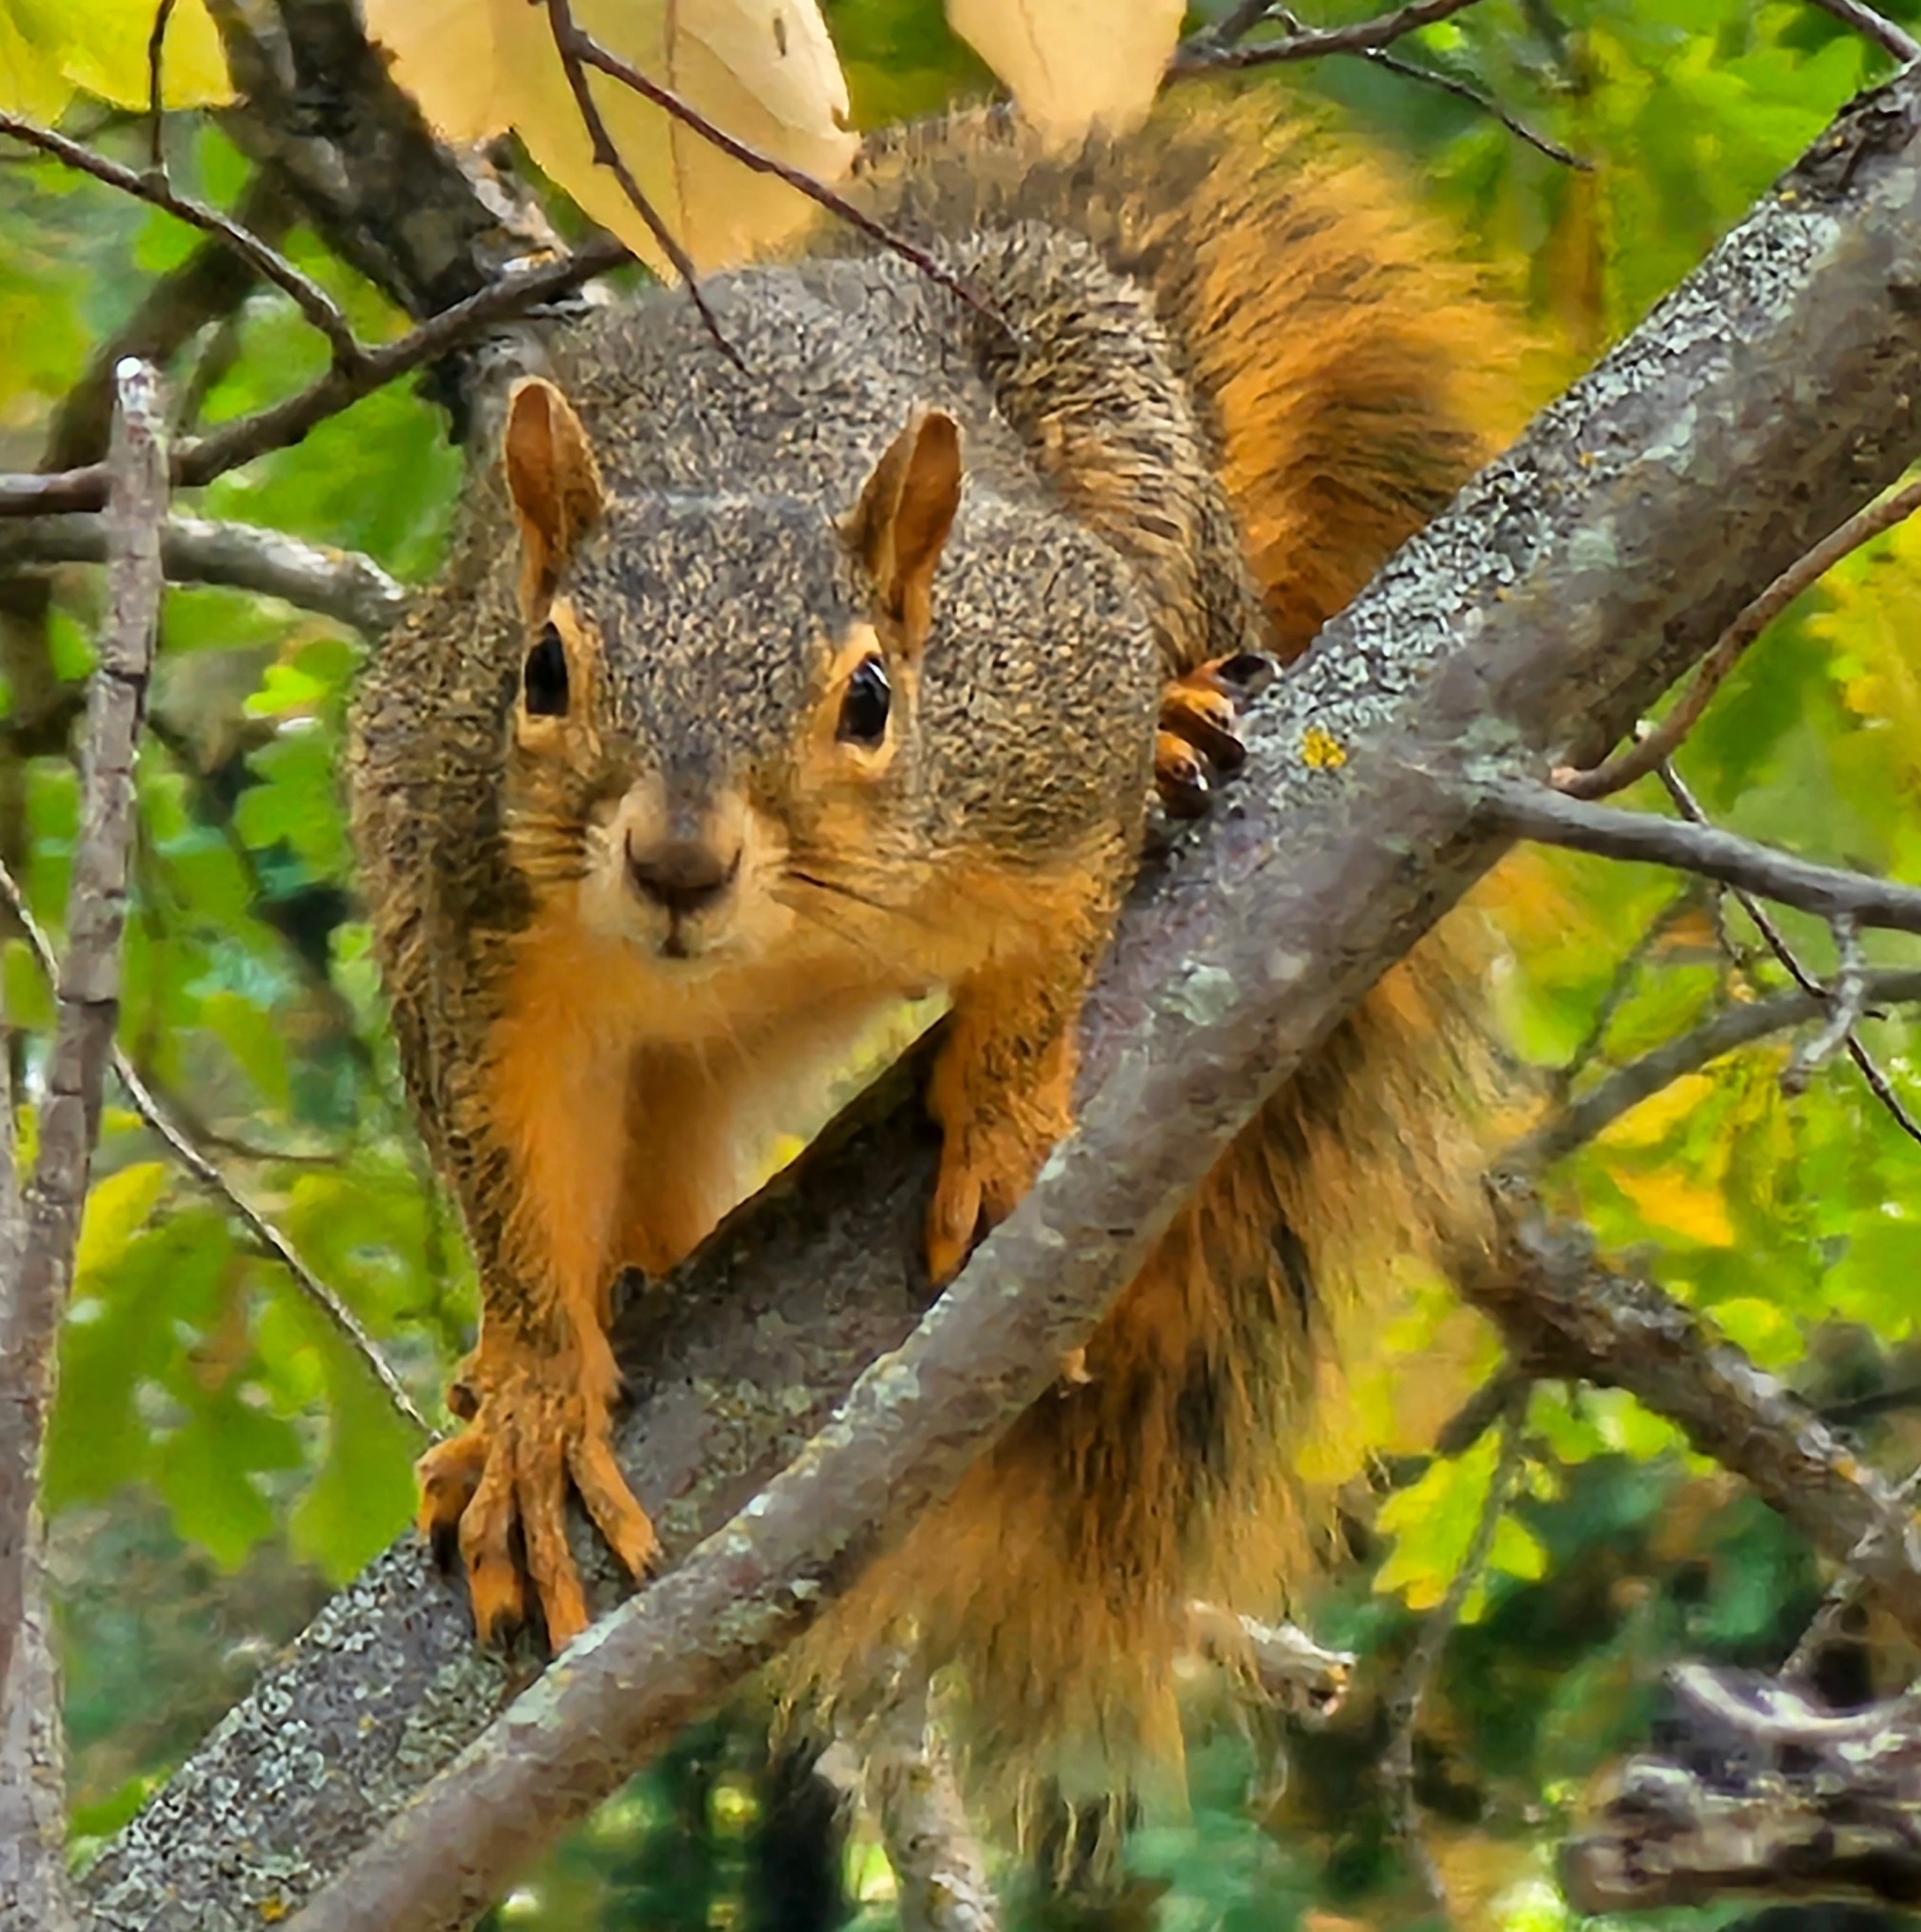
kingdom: Animalia
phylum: Chordata
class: Mammalia
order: Rodentia
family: Sciuridae
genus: Sciurus
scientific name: Sciurus niger
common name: Fox squirrel
